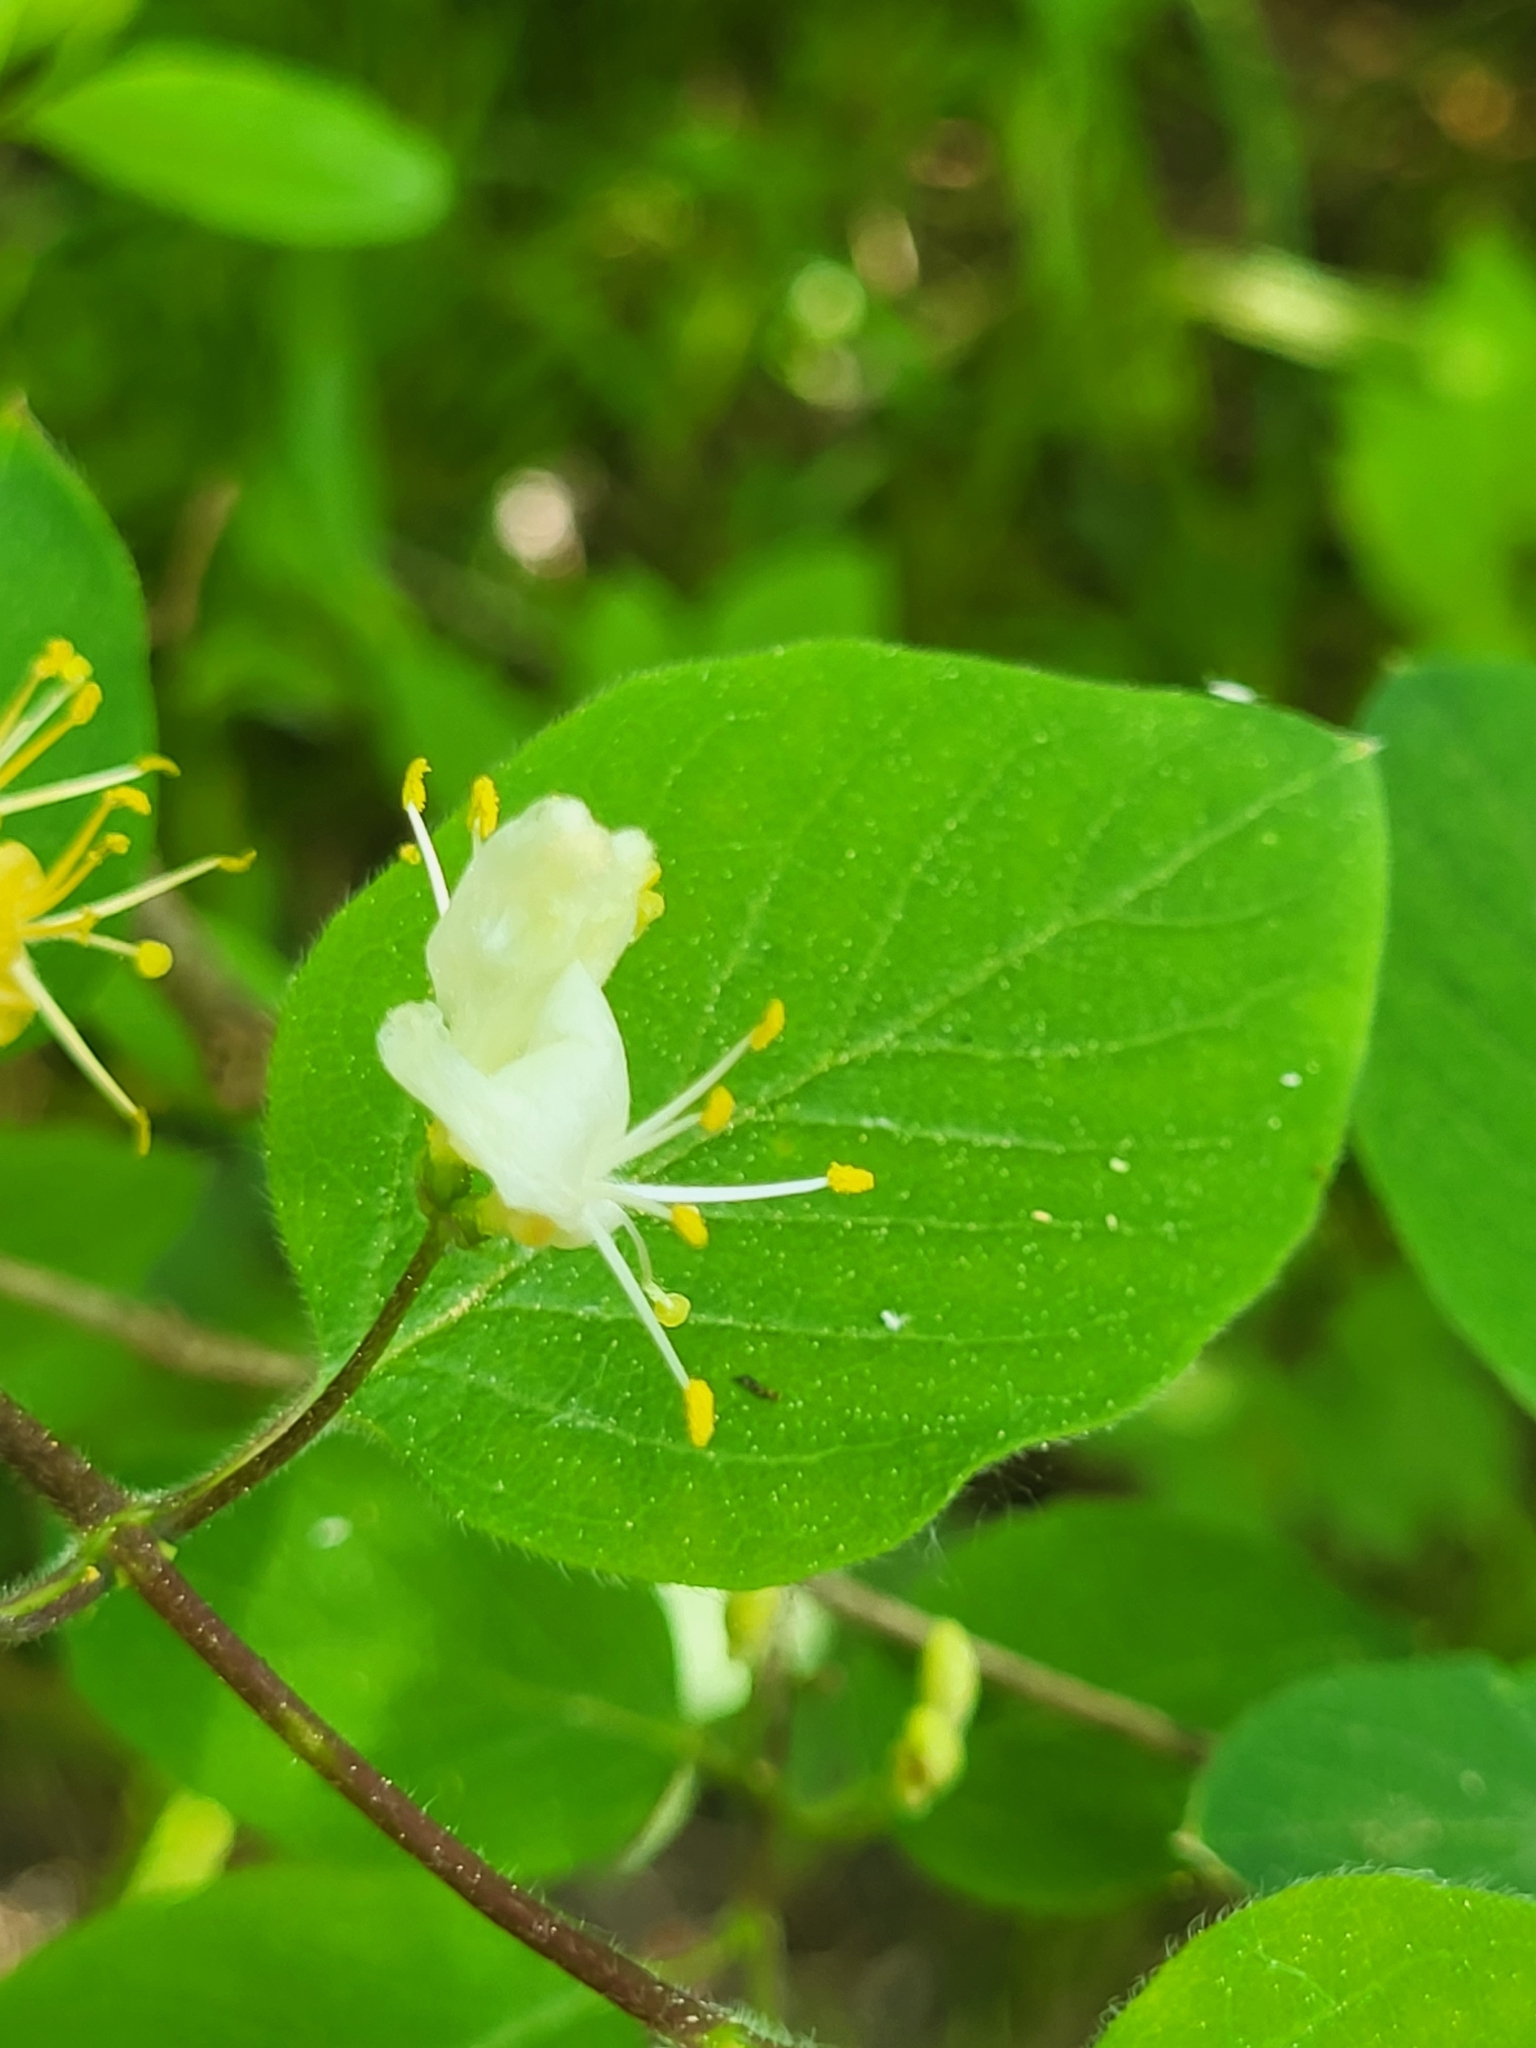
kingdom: Plantae
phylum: Tracheophyta
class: Magnoliopsida
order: Dipsacales
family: Caprifoliaceae
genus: Lonicera
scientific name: Lonicera xylosteum
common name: Fly honeysuckle
